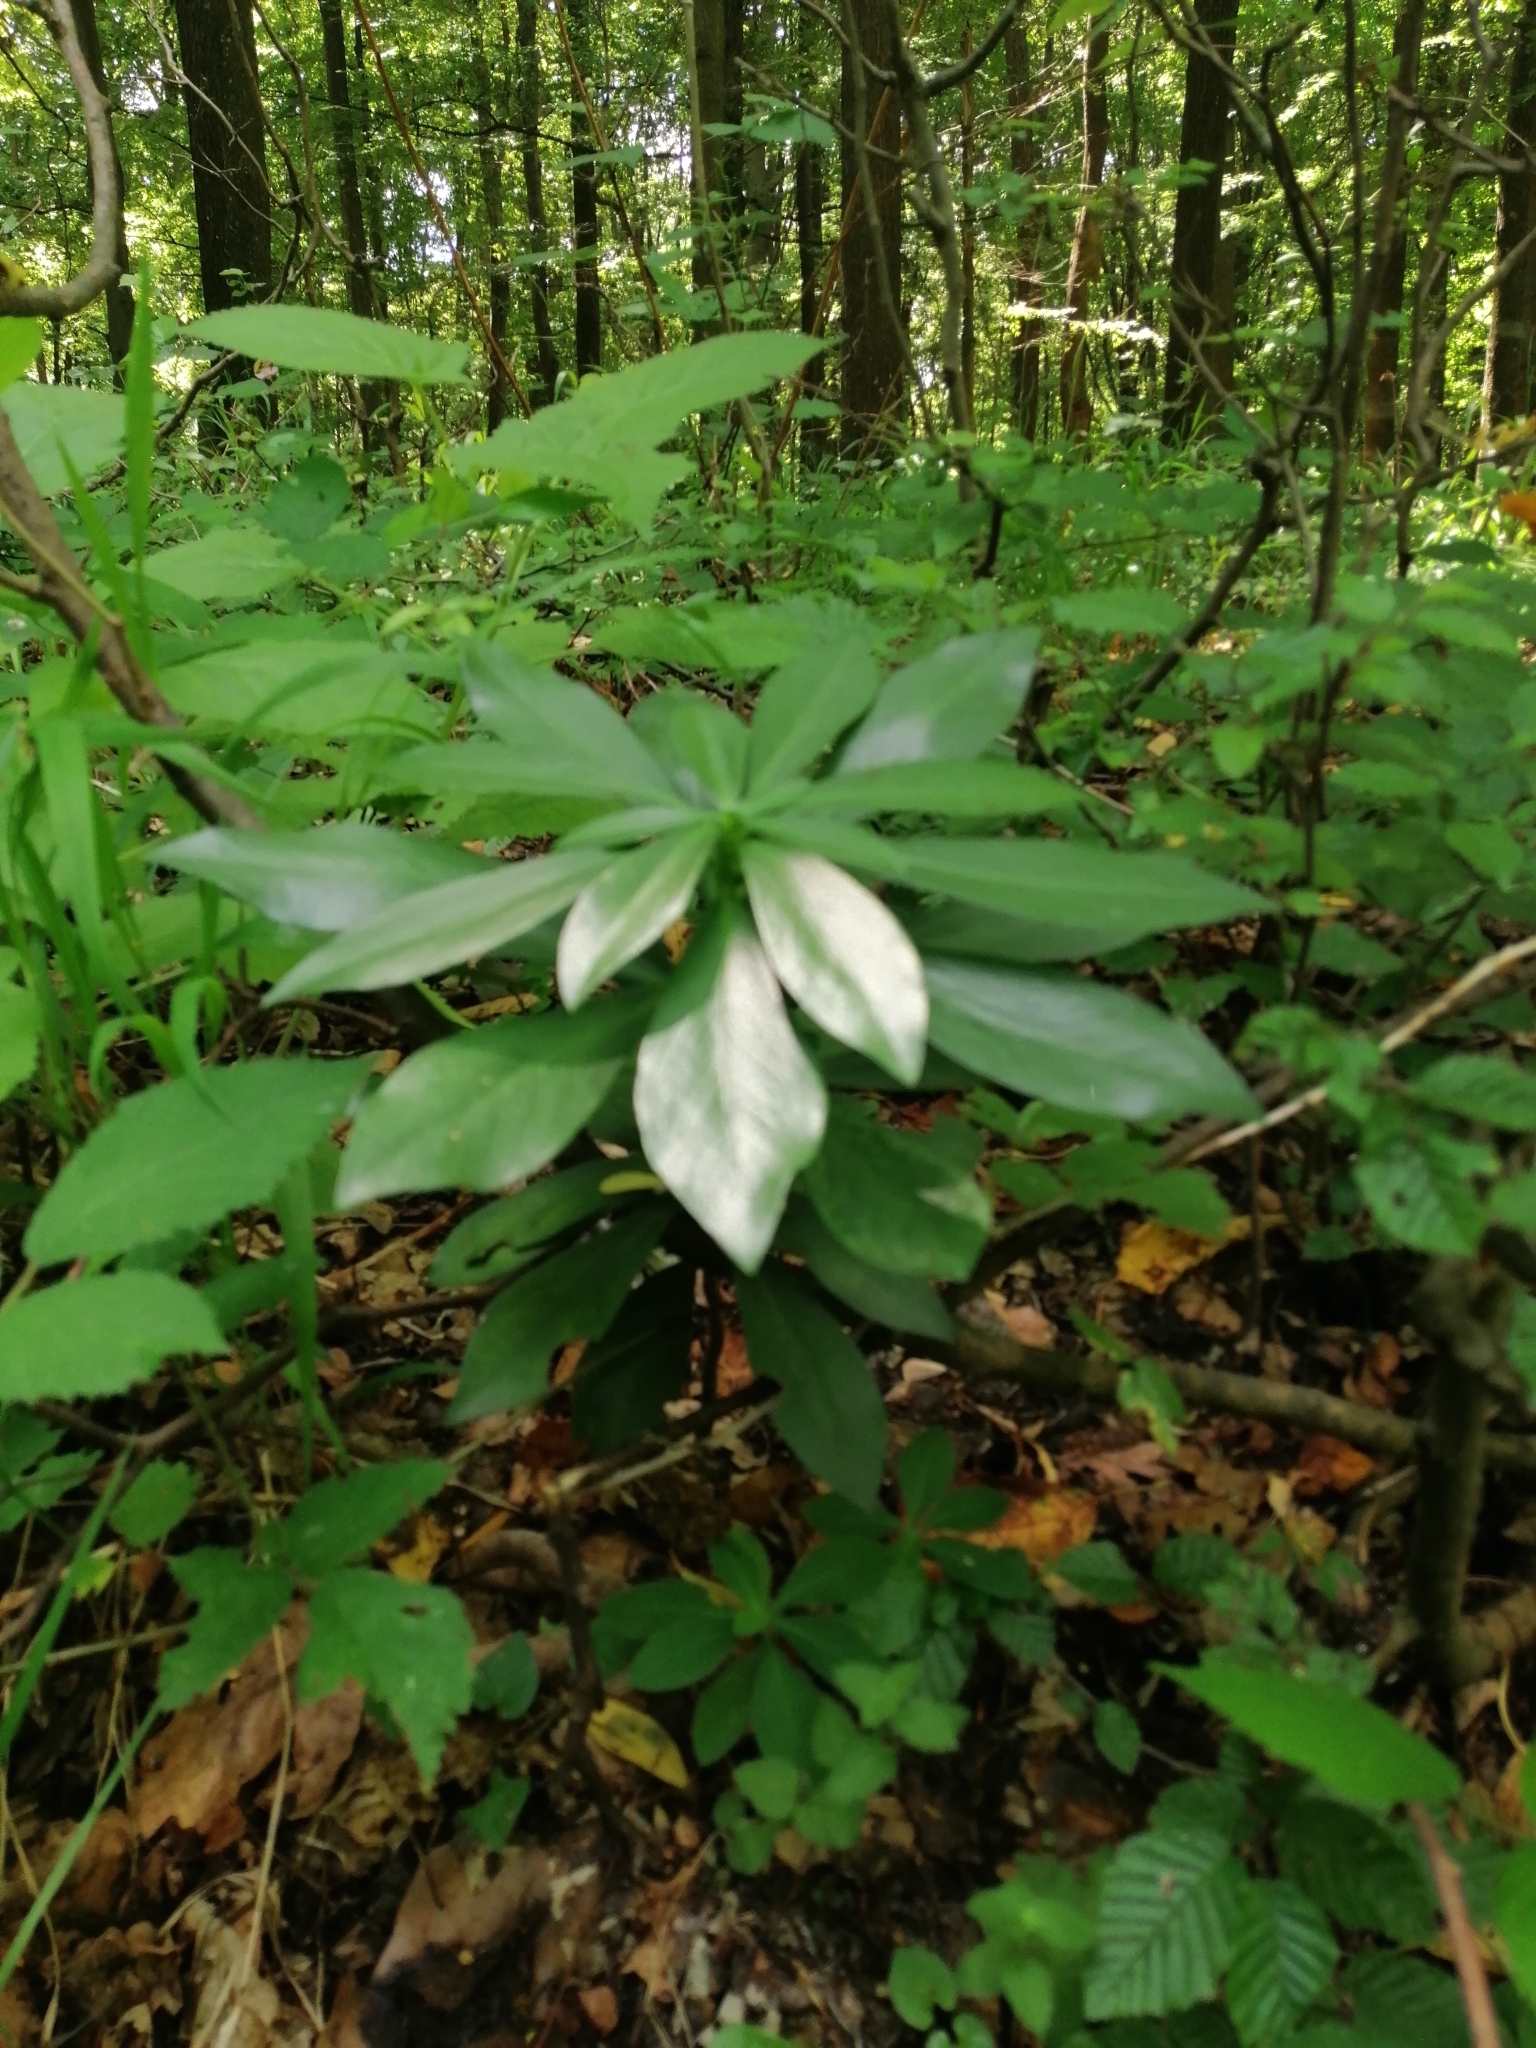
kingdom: Plantae
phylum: Tracheophyta
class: Magnoliopsida
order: Malvales
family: Thymelaeaceae
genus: Daphne
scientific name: Daphne laureola
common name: Spurge-laurel
